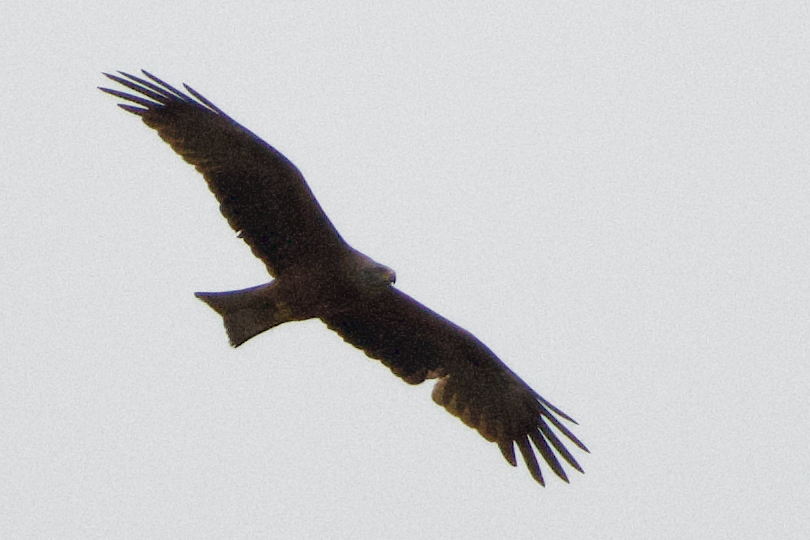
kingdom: Animalia
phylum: Chordata
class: Aves
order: Accipitriformes
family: Accipitridae
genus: Milvus
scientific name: Milvus migrans
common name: Black kite
